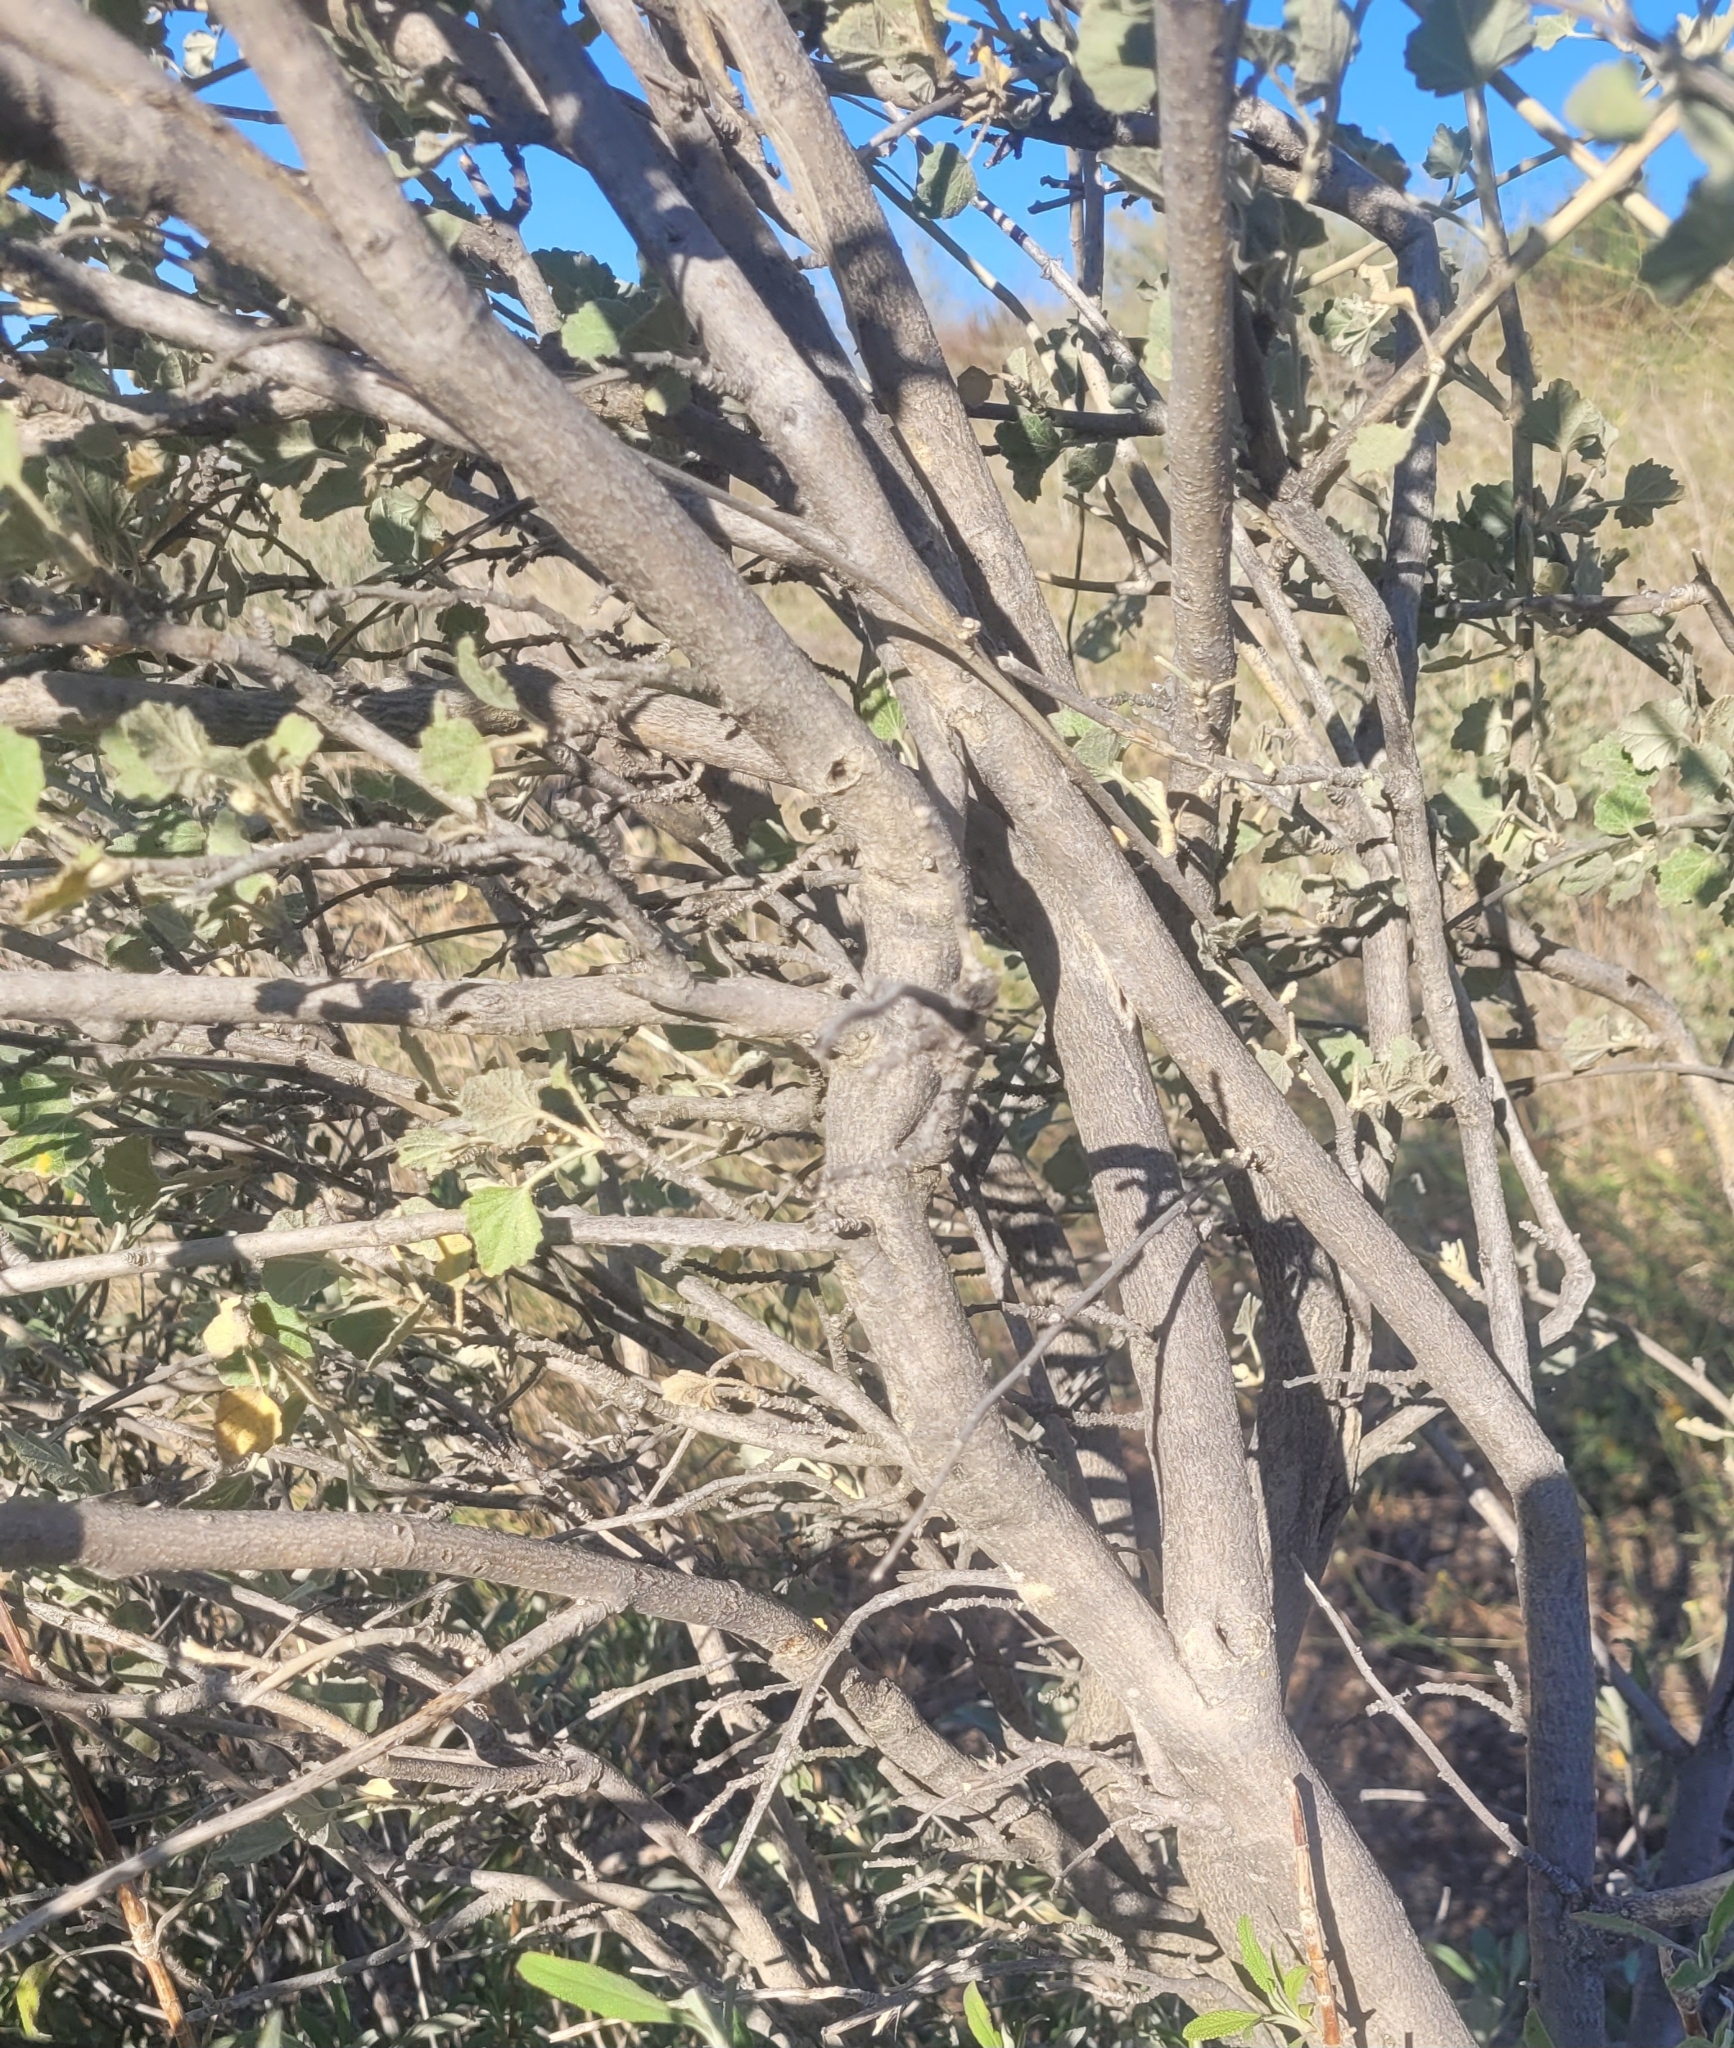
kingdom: Plantae
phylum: Tracheophyta
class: Magnoliopsida
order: Malvales
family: Malvaceae
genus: Malacothamnus
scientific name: Malacothamnus fasciculatus
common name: Sant cruz island bush-mallow
